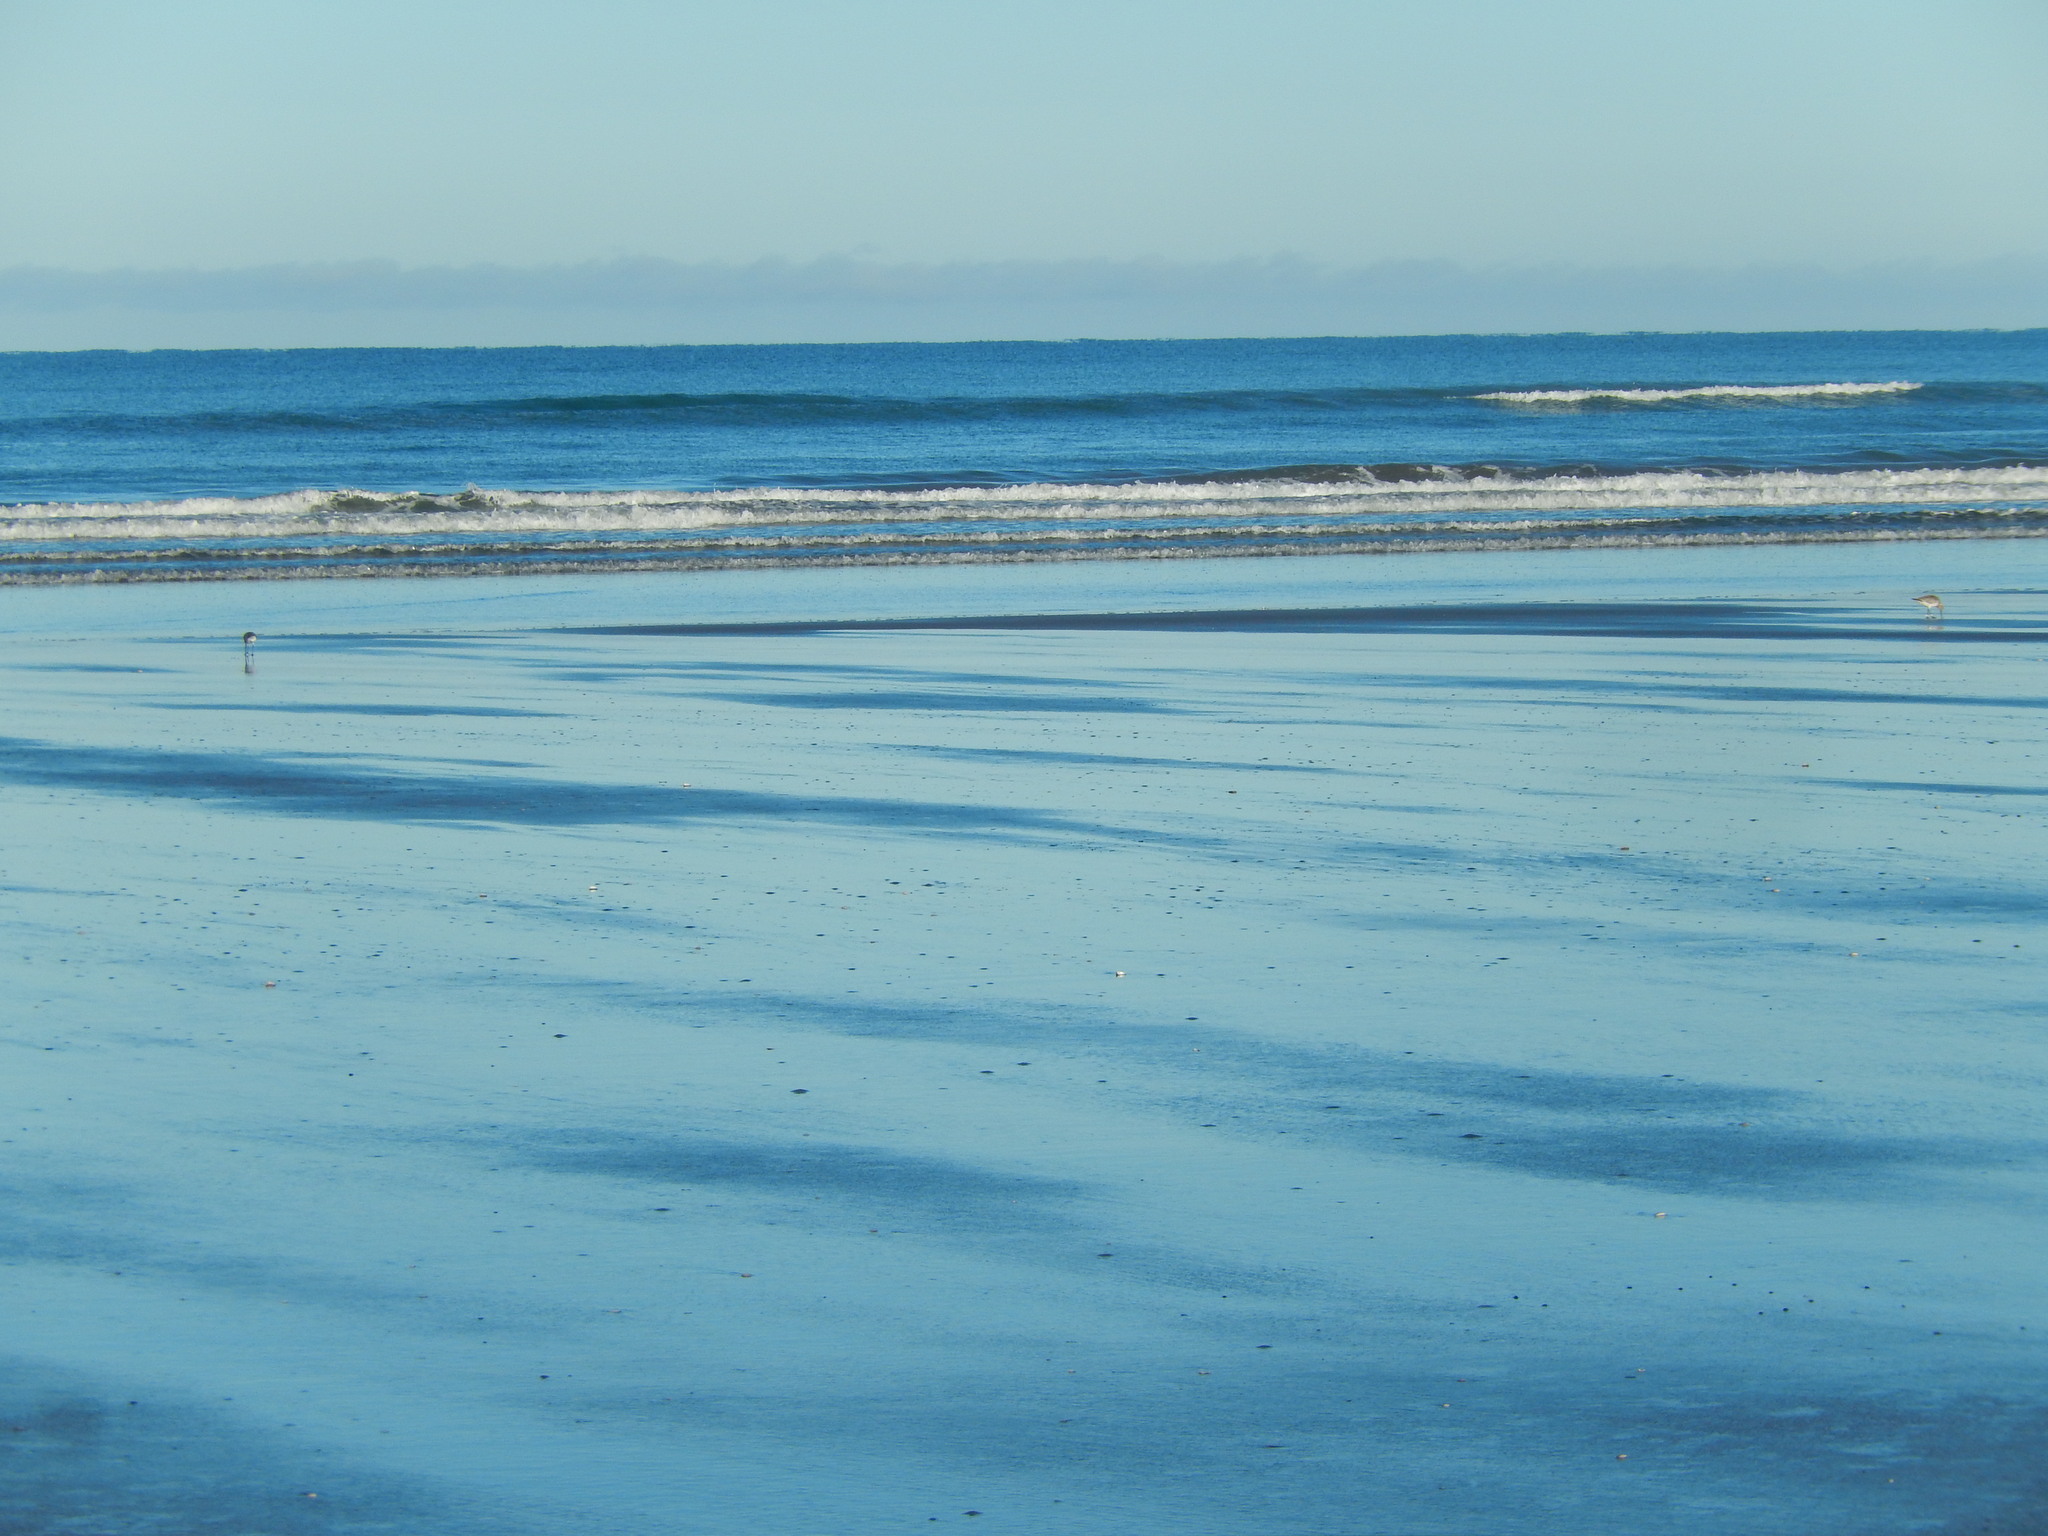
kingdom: Animalia
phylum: Chordata
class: Aves
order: Charadriiformes
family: Scolopacidae
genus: Limosa
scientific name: Limosa lapponica
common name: Bar-tailed godwit
